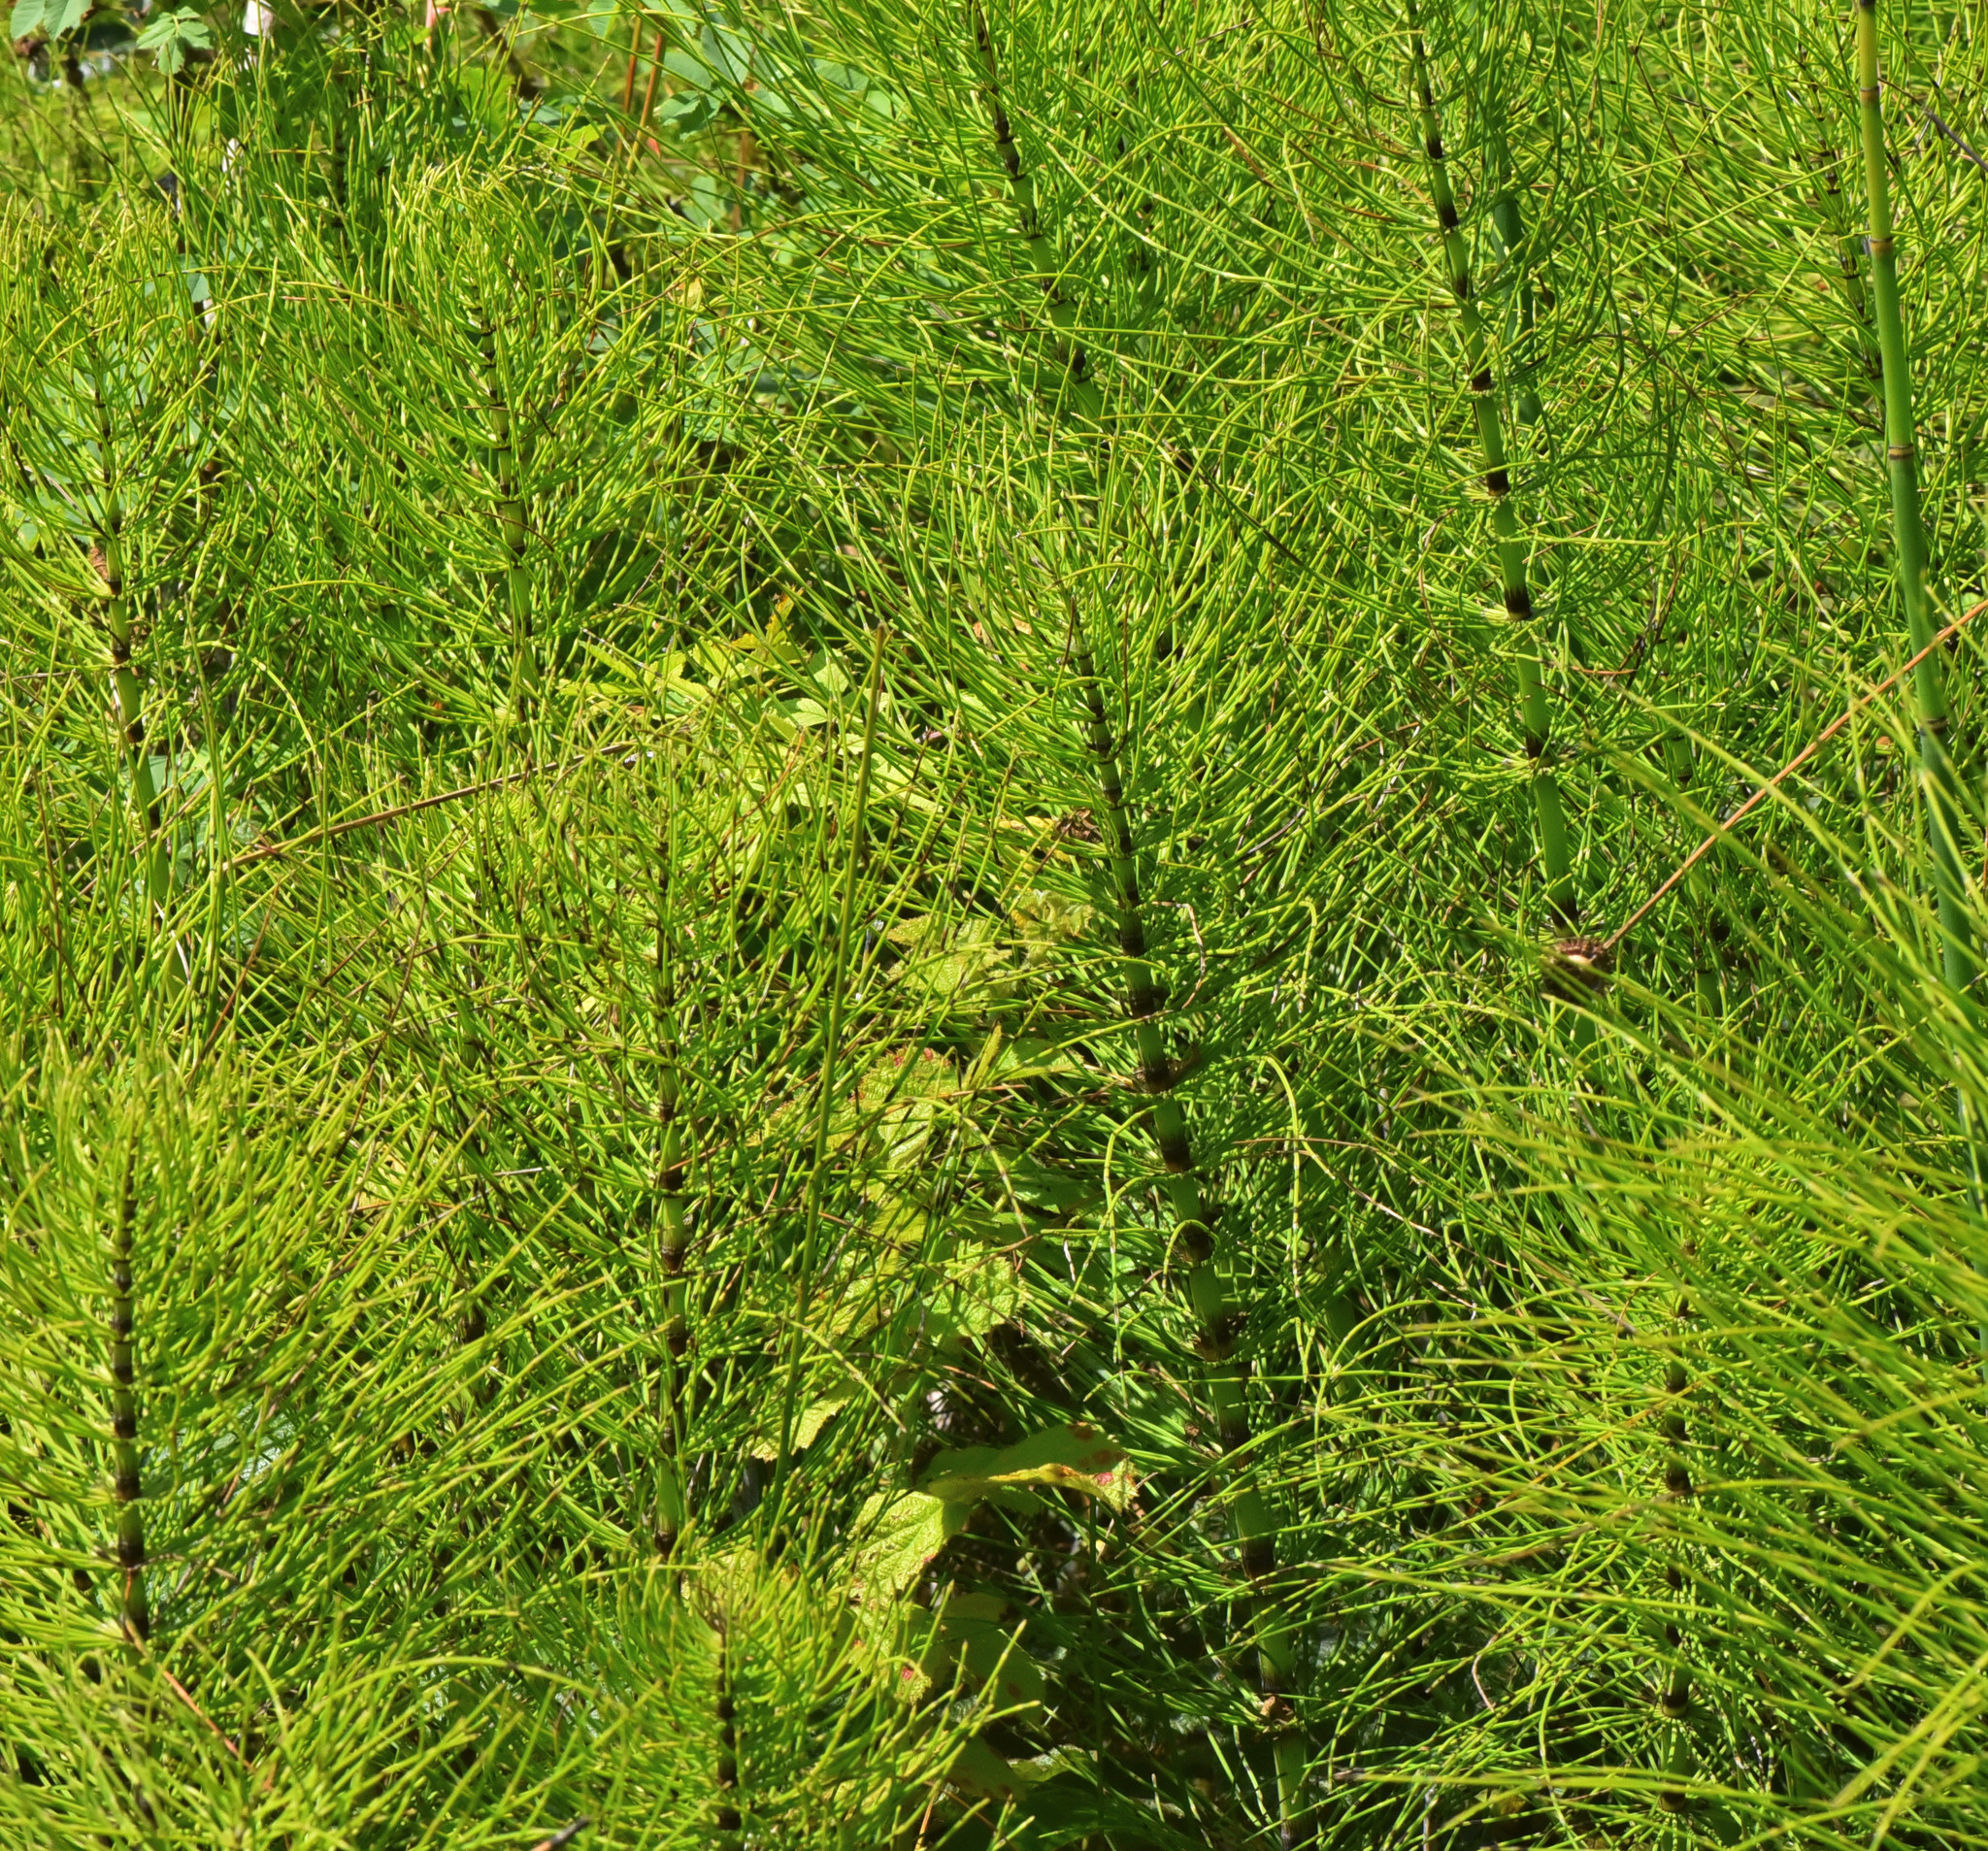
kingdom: Plantae
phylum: Tracheophyta
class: Polypodiopsida
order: Equisetales
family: Equisetaceae
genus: Equisetum
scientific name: Equisetum braunii
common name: Braun's horsetail
